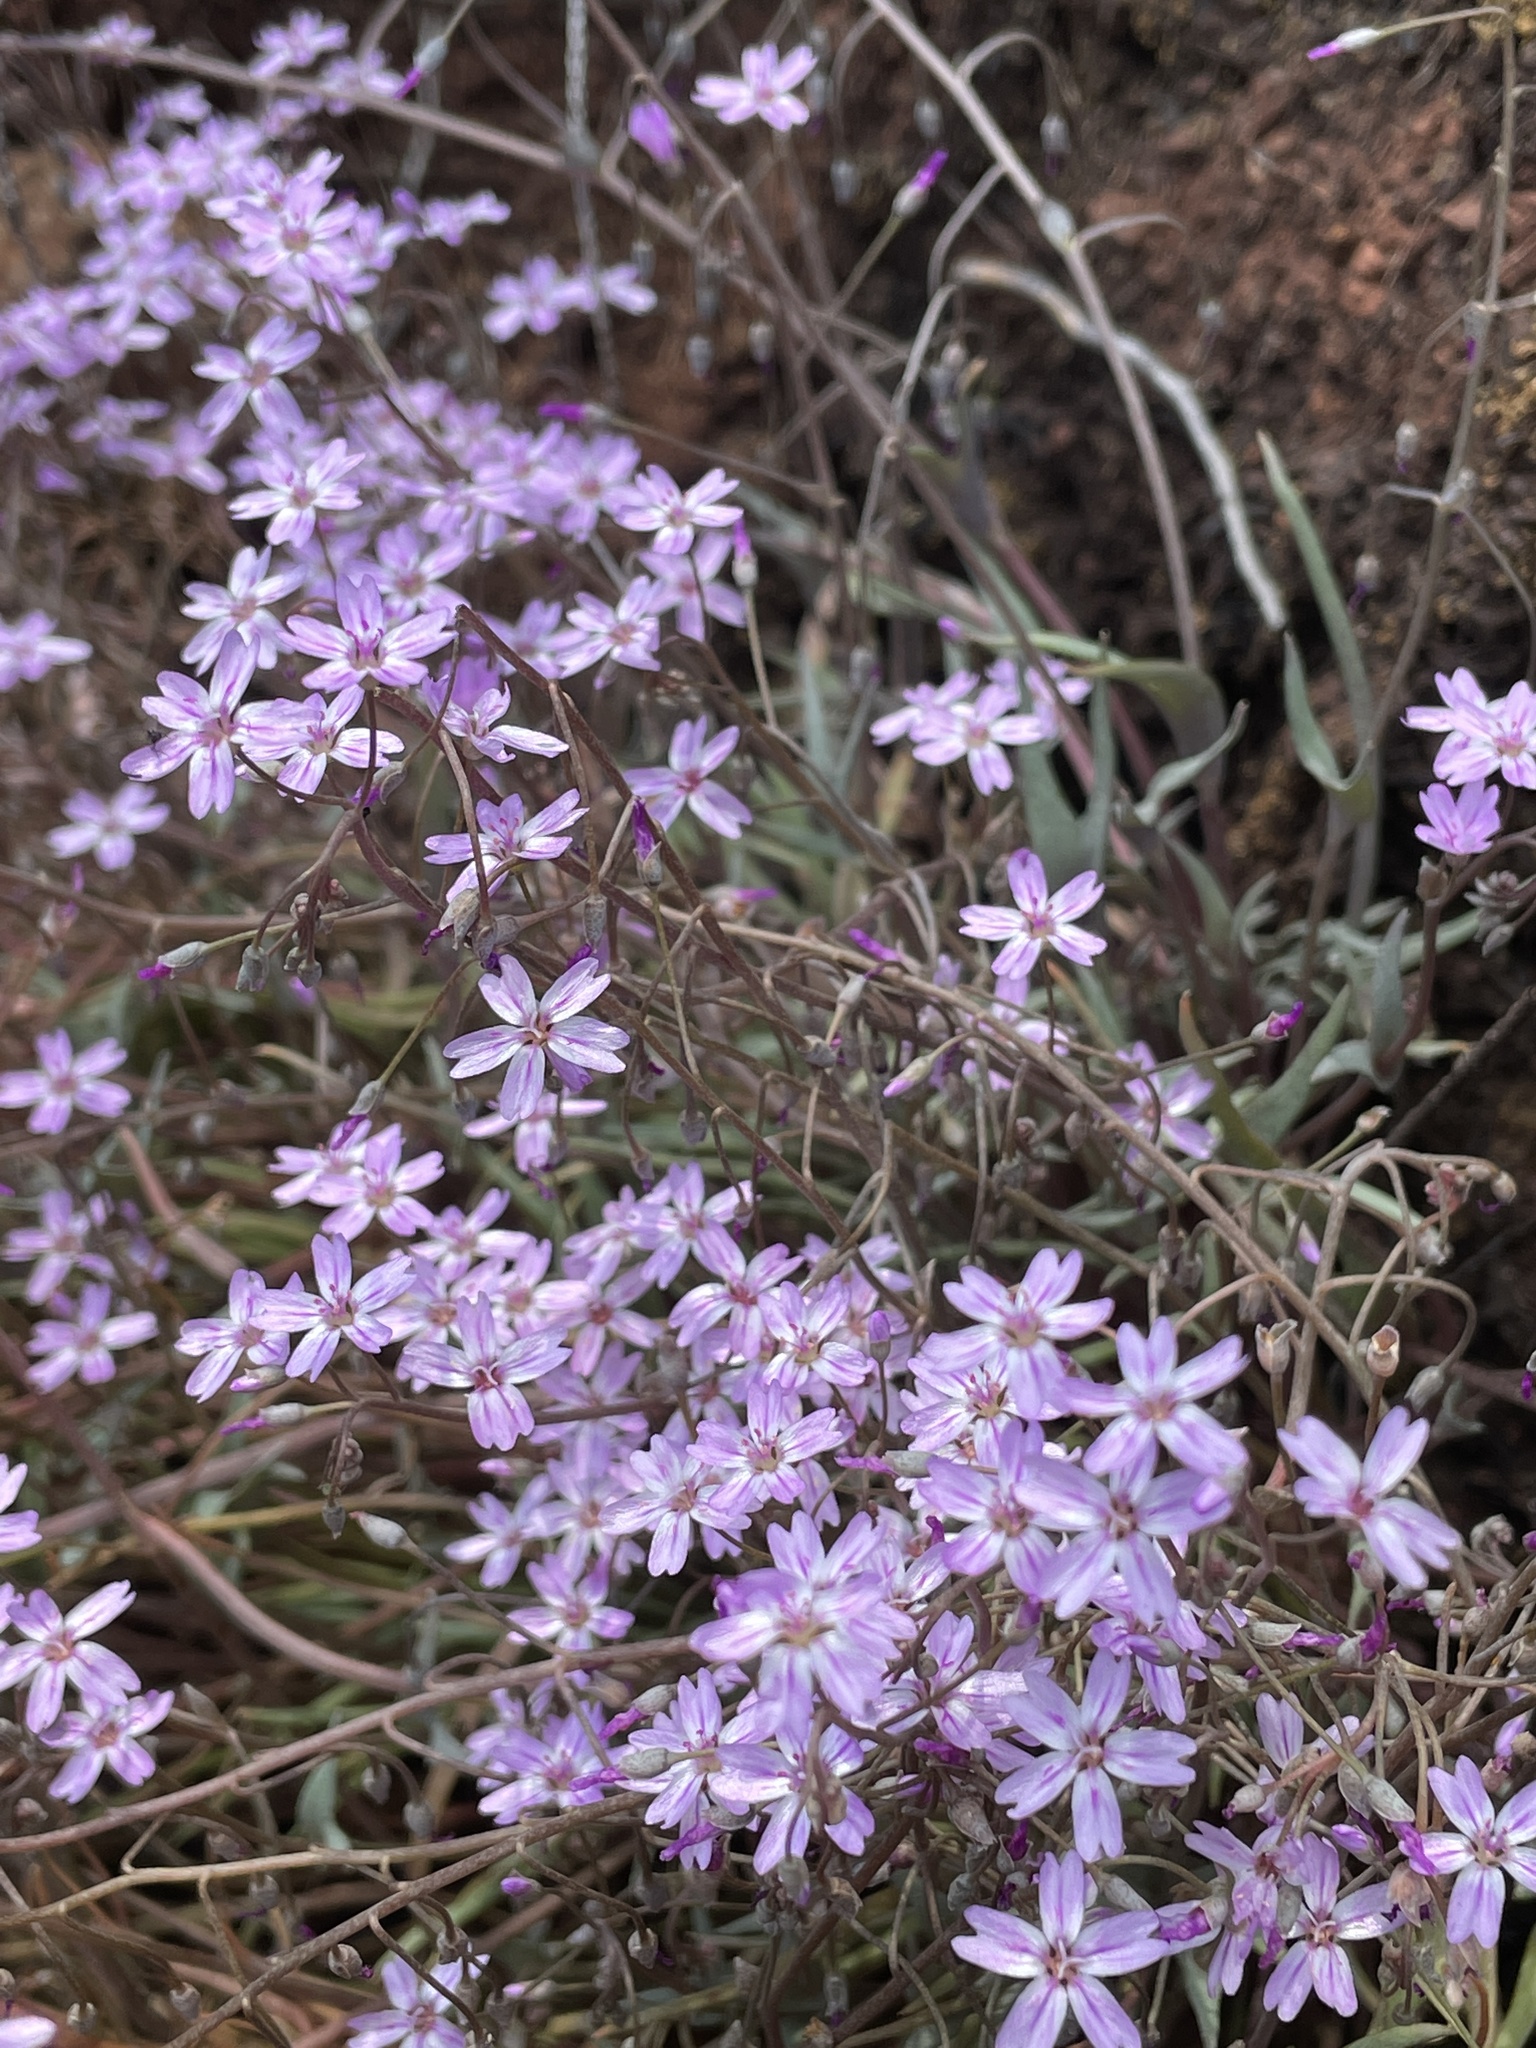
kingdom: Plantae
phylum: Tracheophyta
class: Magnoliopsida
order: Caryophyllales
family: Montiaceae
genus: Claytonia
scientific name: Claytonia gypsophiloides
